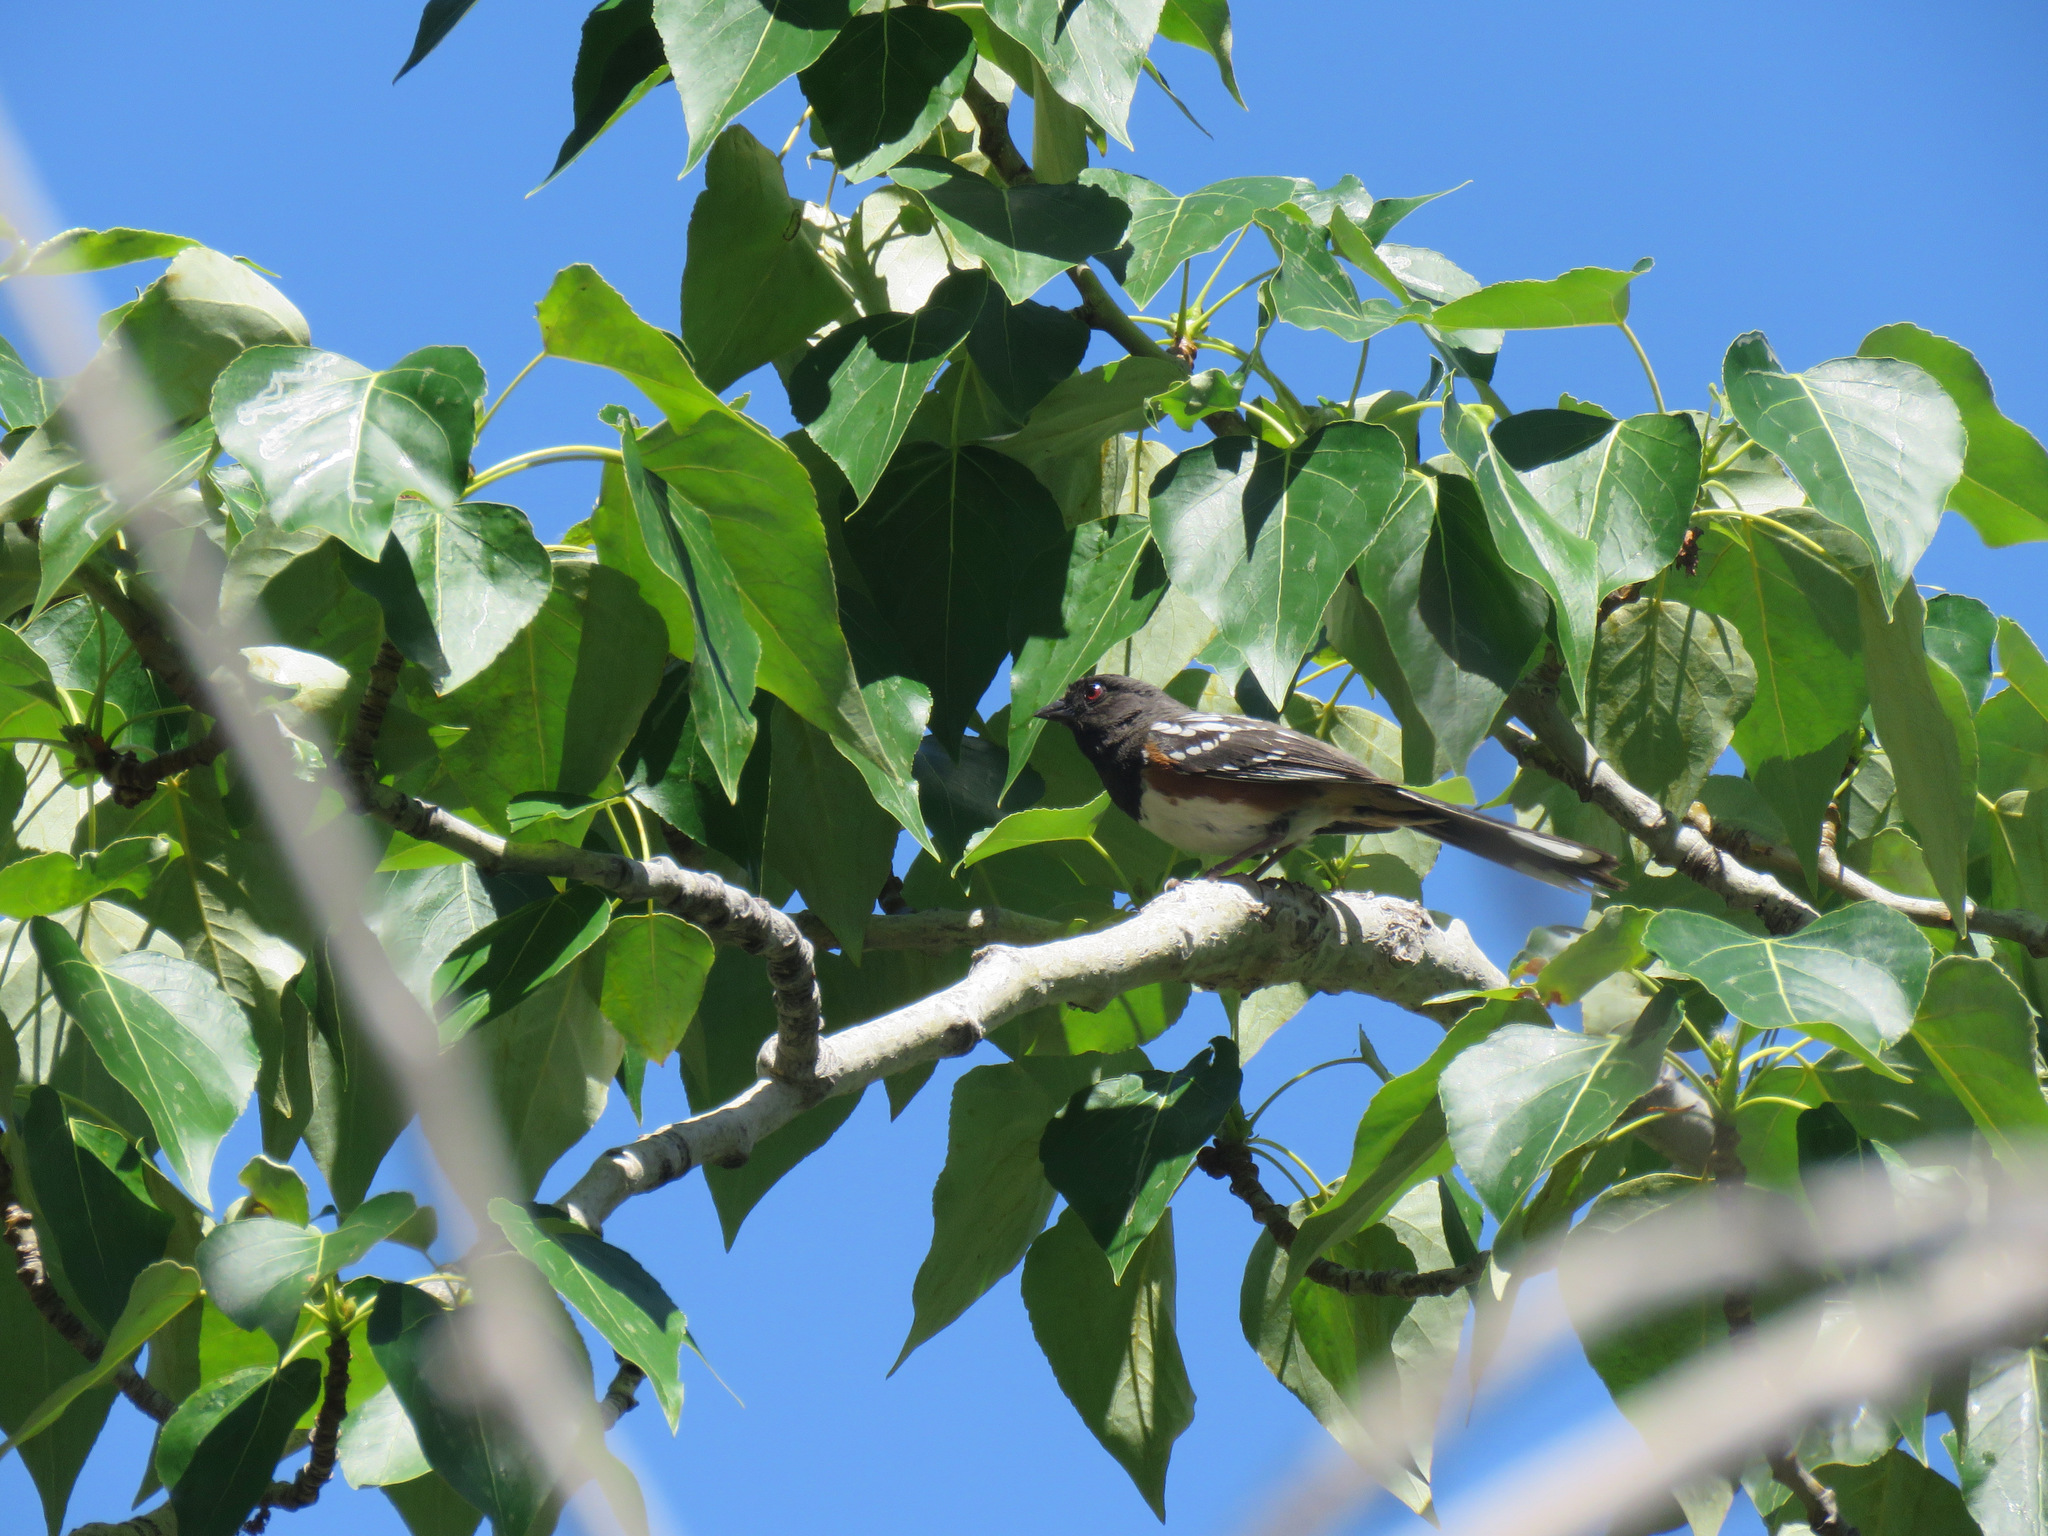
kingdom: Animalia
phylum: Chordata
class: Aves
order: Passeriformes
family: Passerellidae
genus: Pipilo
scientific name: Pipilo maculatus
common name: Spotted towhee
